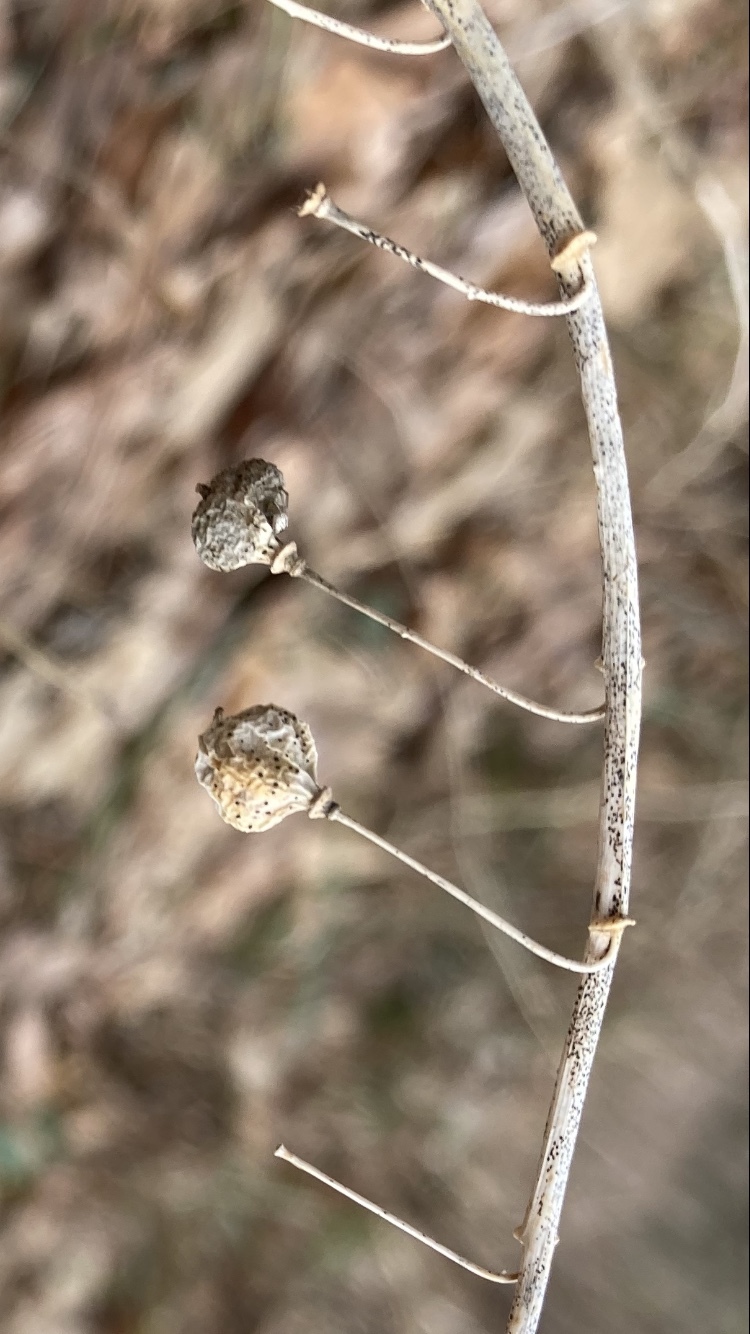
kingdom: Plantae
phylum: Tracheophyta
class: Liliopsida
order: Asparagales
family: Asparagaceae
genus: Polygonatum
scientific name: Polygonatum pubescens
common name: Downy solomon's seal
